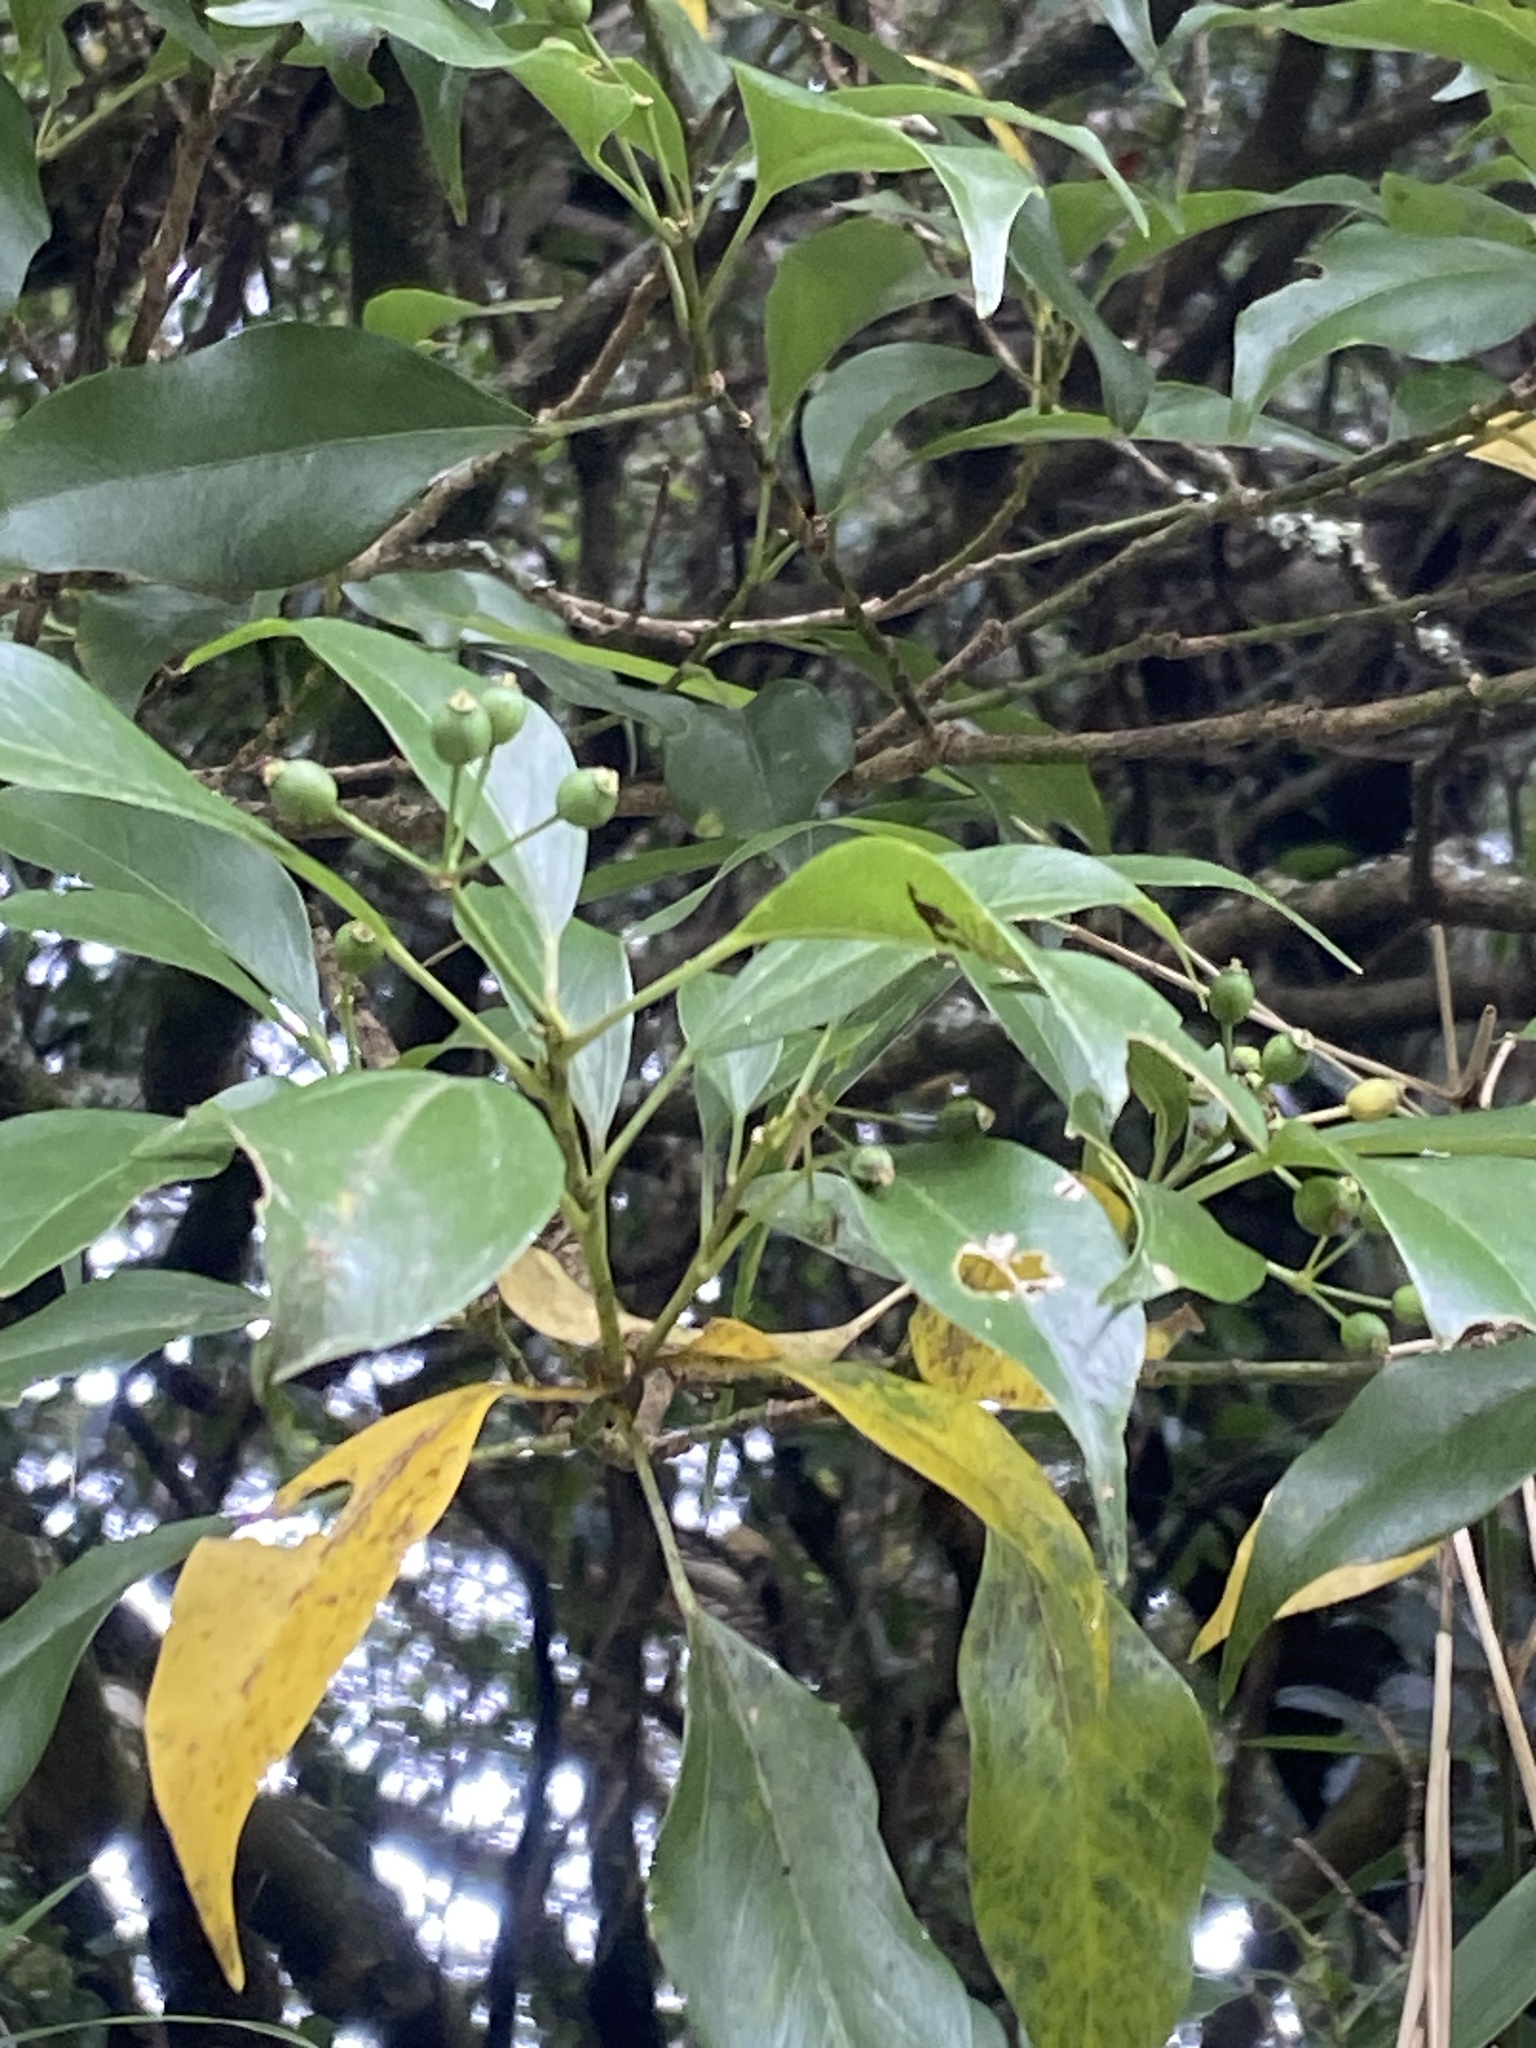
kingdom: Plantae
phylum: Tracheophyta
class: Magnoliopsida
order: Apiales
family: Araliaceae
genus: Dendropanax
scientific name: Dendropanax dentiger
